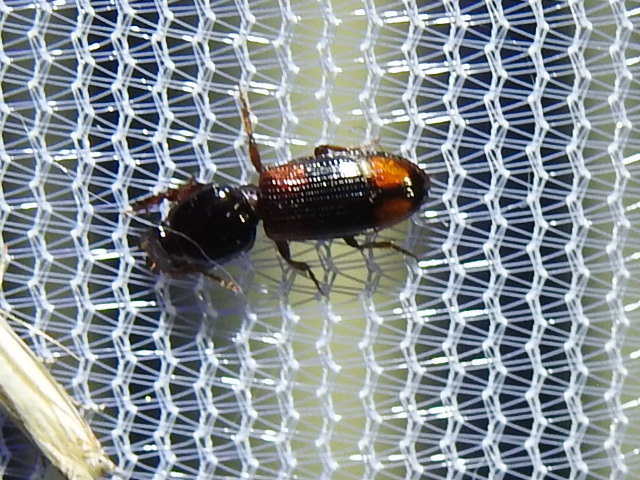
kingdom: Animalia
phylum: Arthropoda
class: Insecta
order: Coleoptera
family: Carabidae
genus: Clivina
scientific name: Clivina bipustulata
